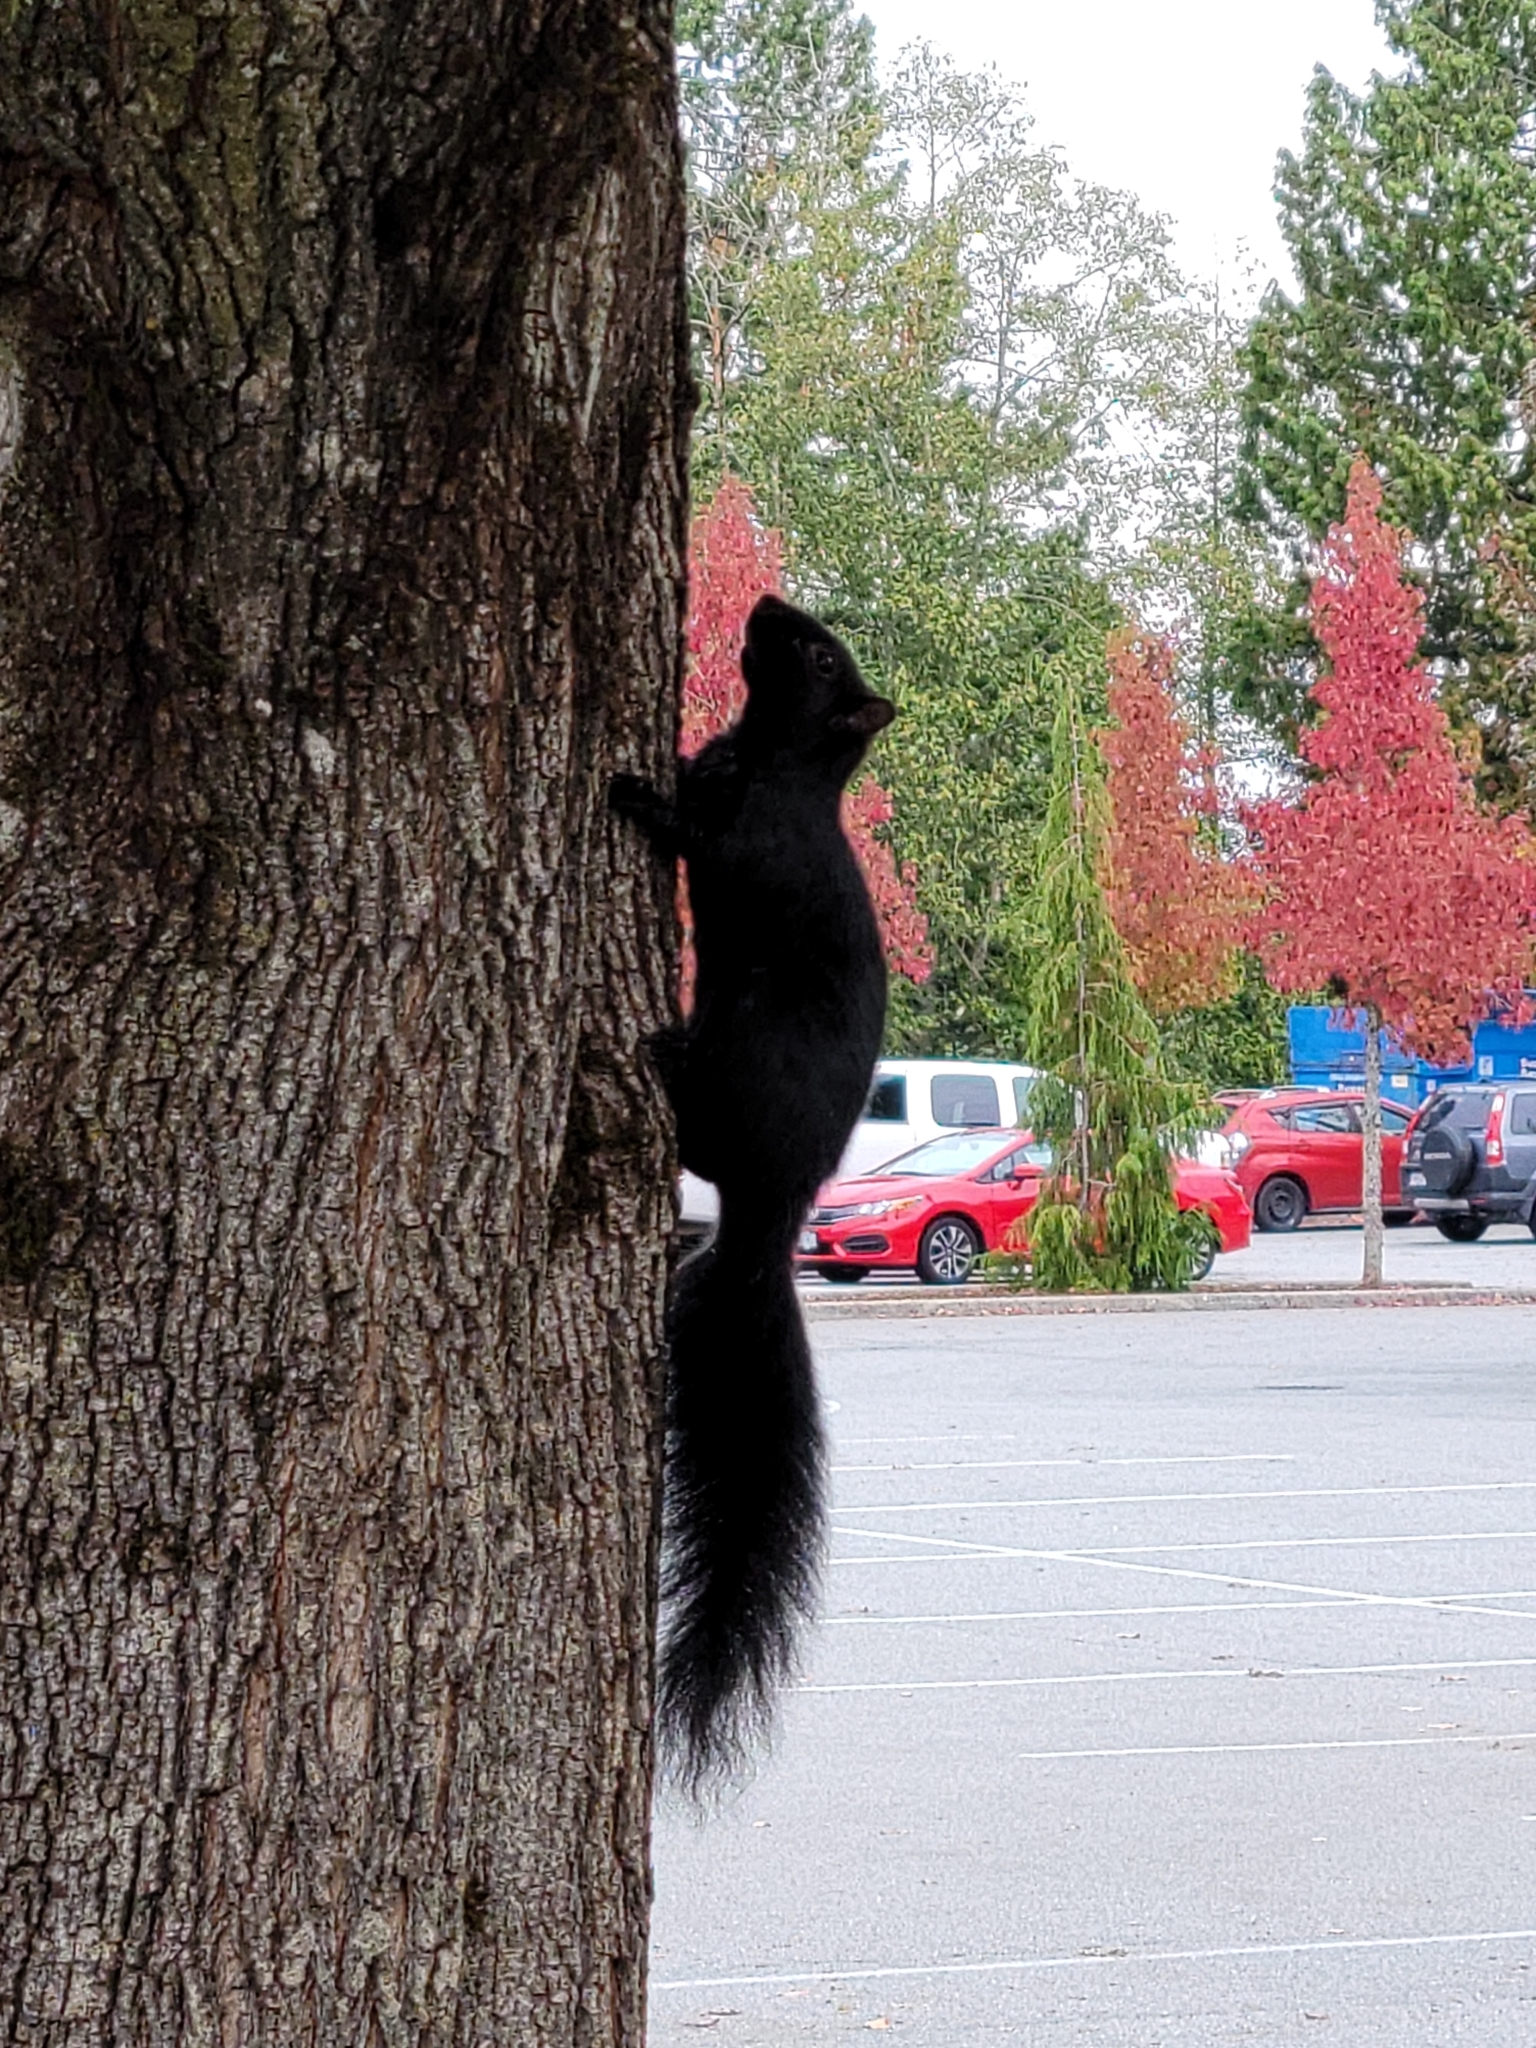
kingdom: Animalia
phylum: Chordata
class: Mammalia
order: Rodentia
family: Sciuridae
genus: Sciurus
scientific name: Sciurus carolinensis
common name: Eastern gray squirrel
